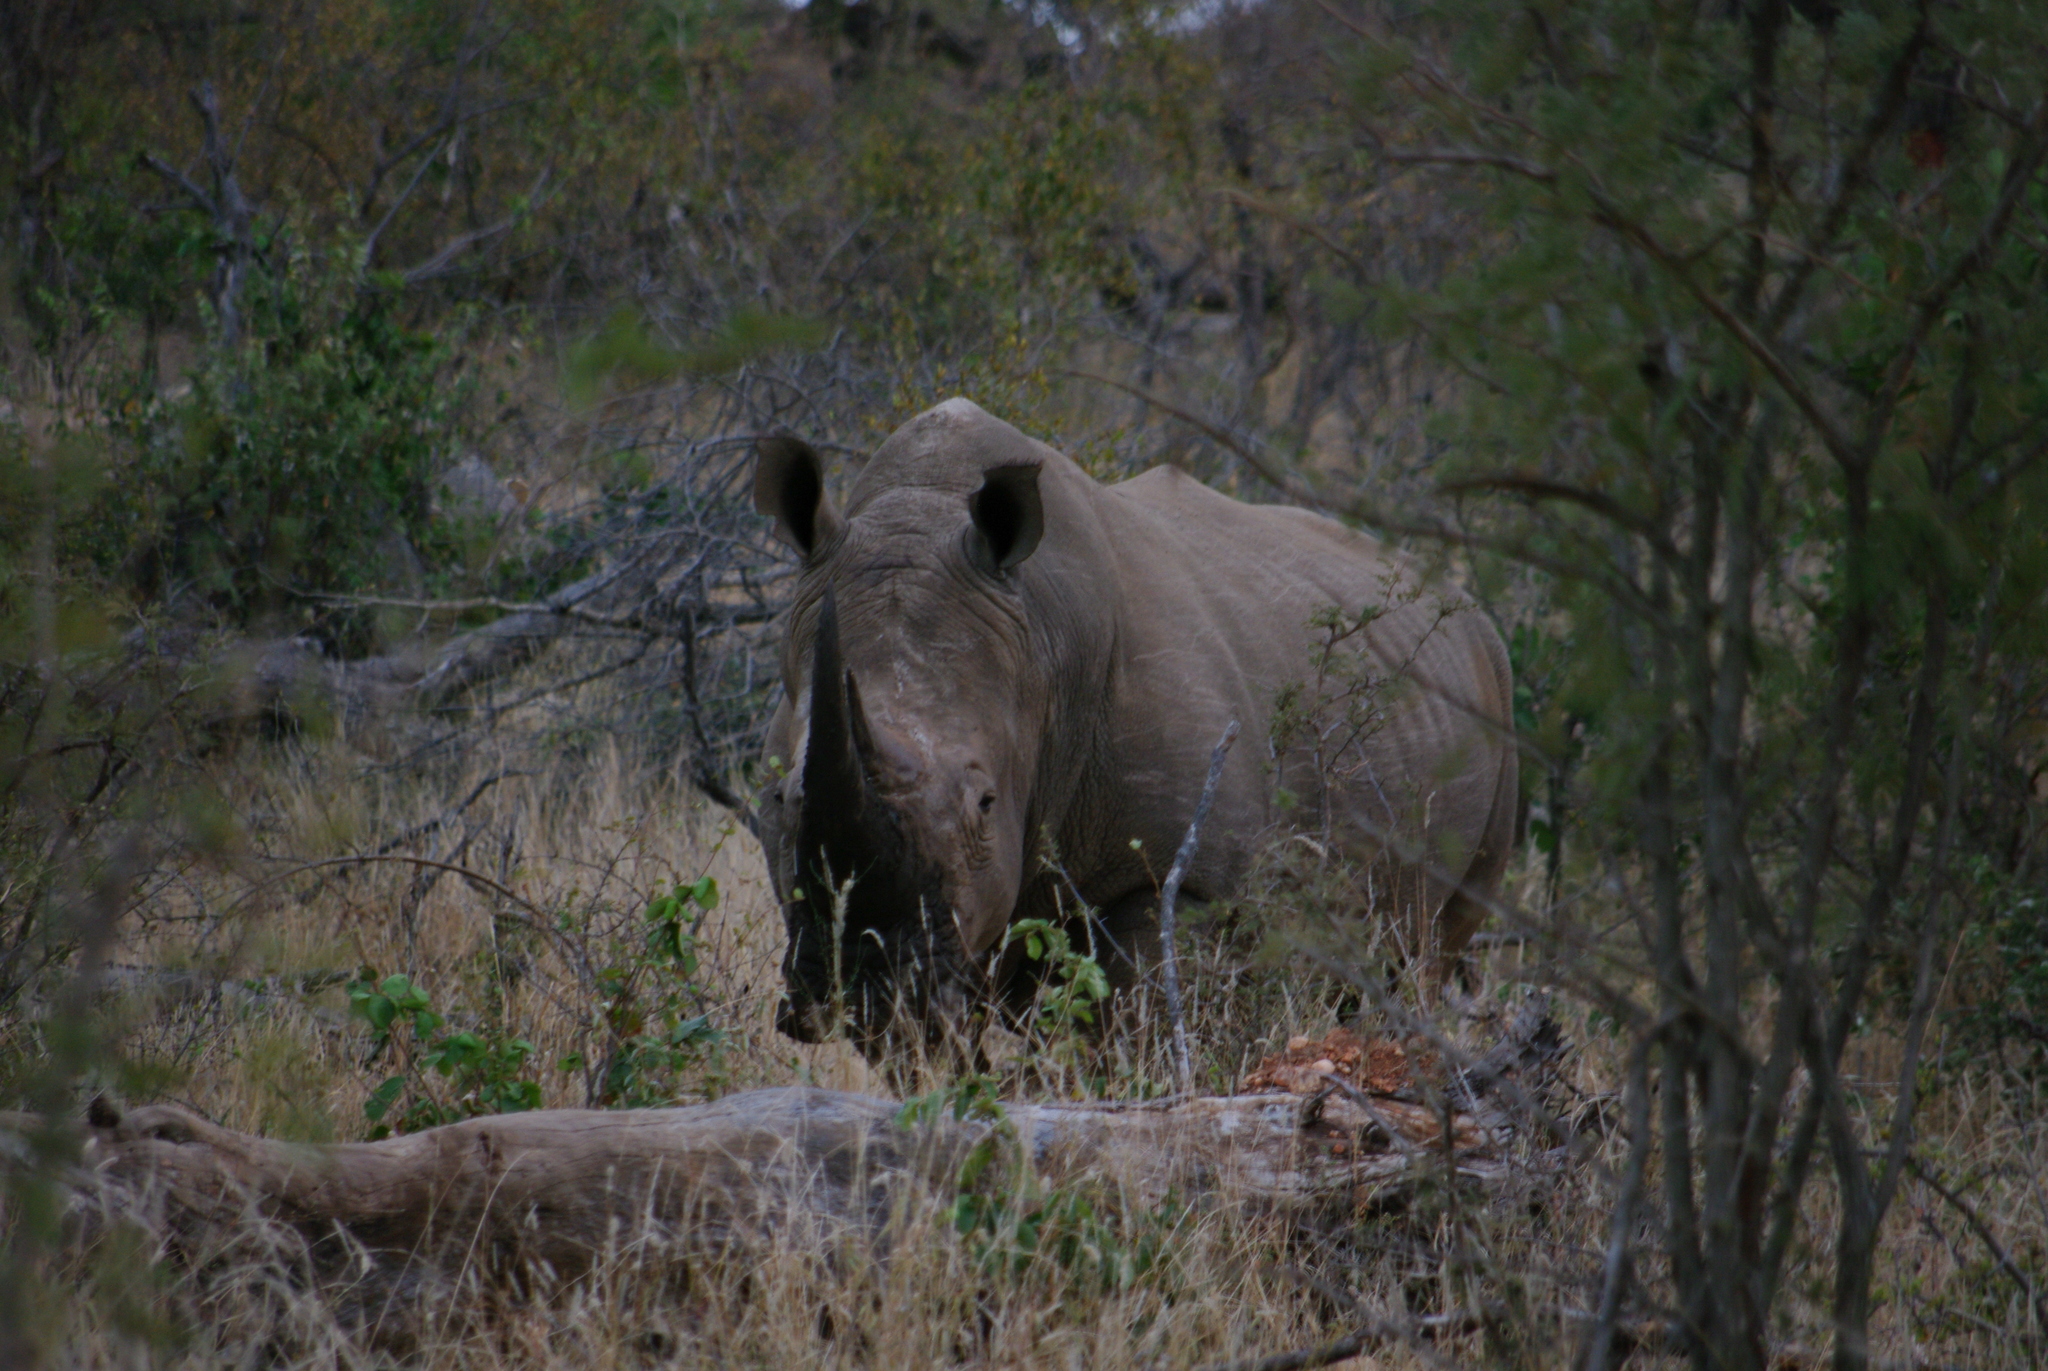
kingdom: Animalia
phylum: Chordata
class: Mammalia
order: Perissodactyla
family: Rhinocerotidae
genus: Ceratotherium
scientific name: Ceratotherium simum
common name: White rhinoceros
